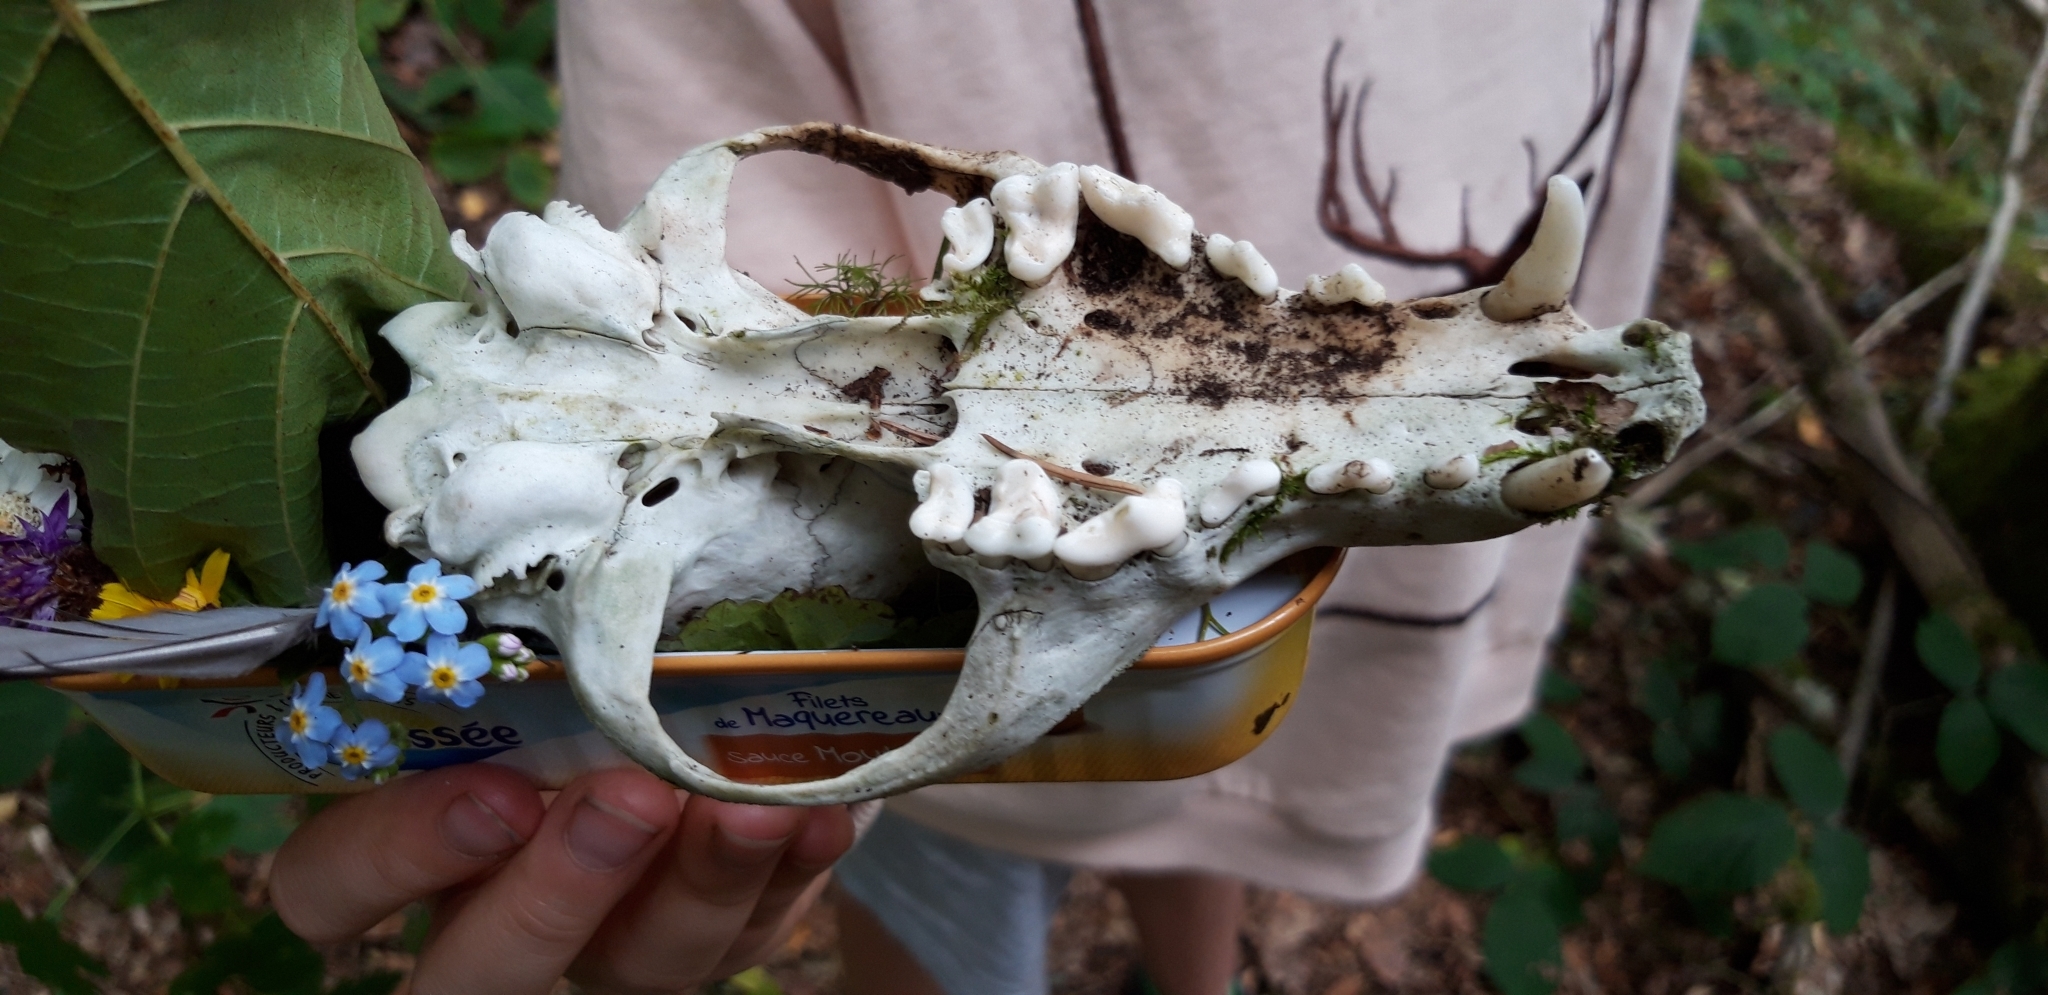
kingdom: Animalia
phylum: Chordata
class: Mammalia
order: Carnivora
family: Canidae
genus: Vulpes
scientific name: Vulpes vulpes
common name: Red fox
